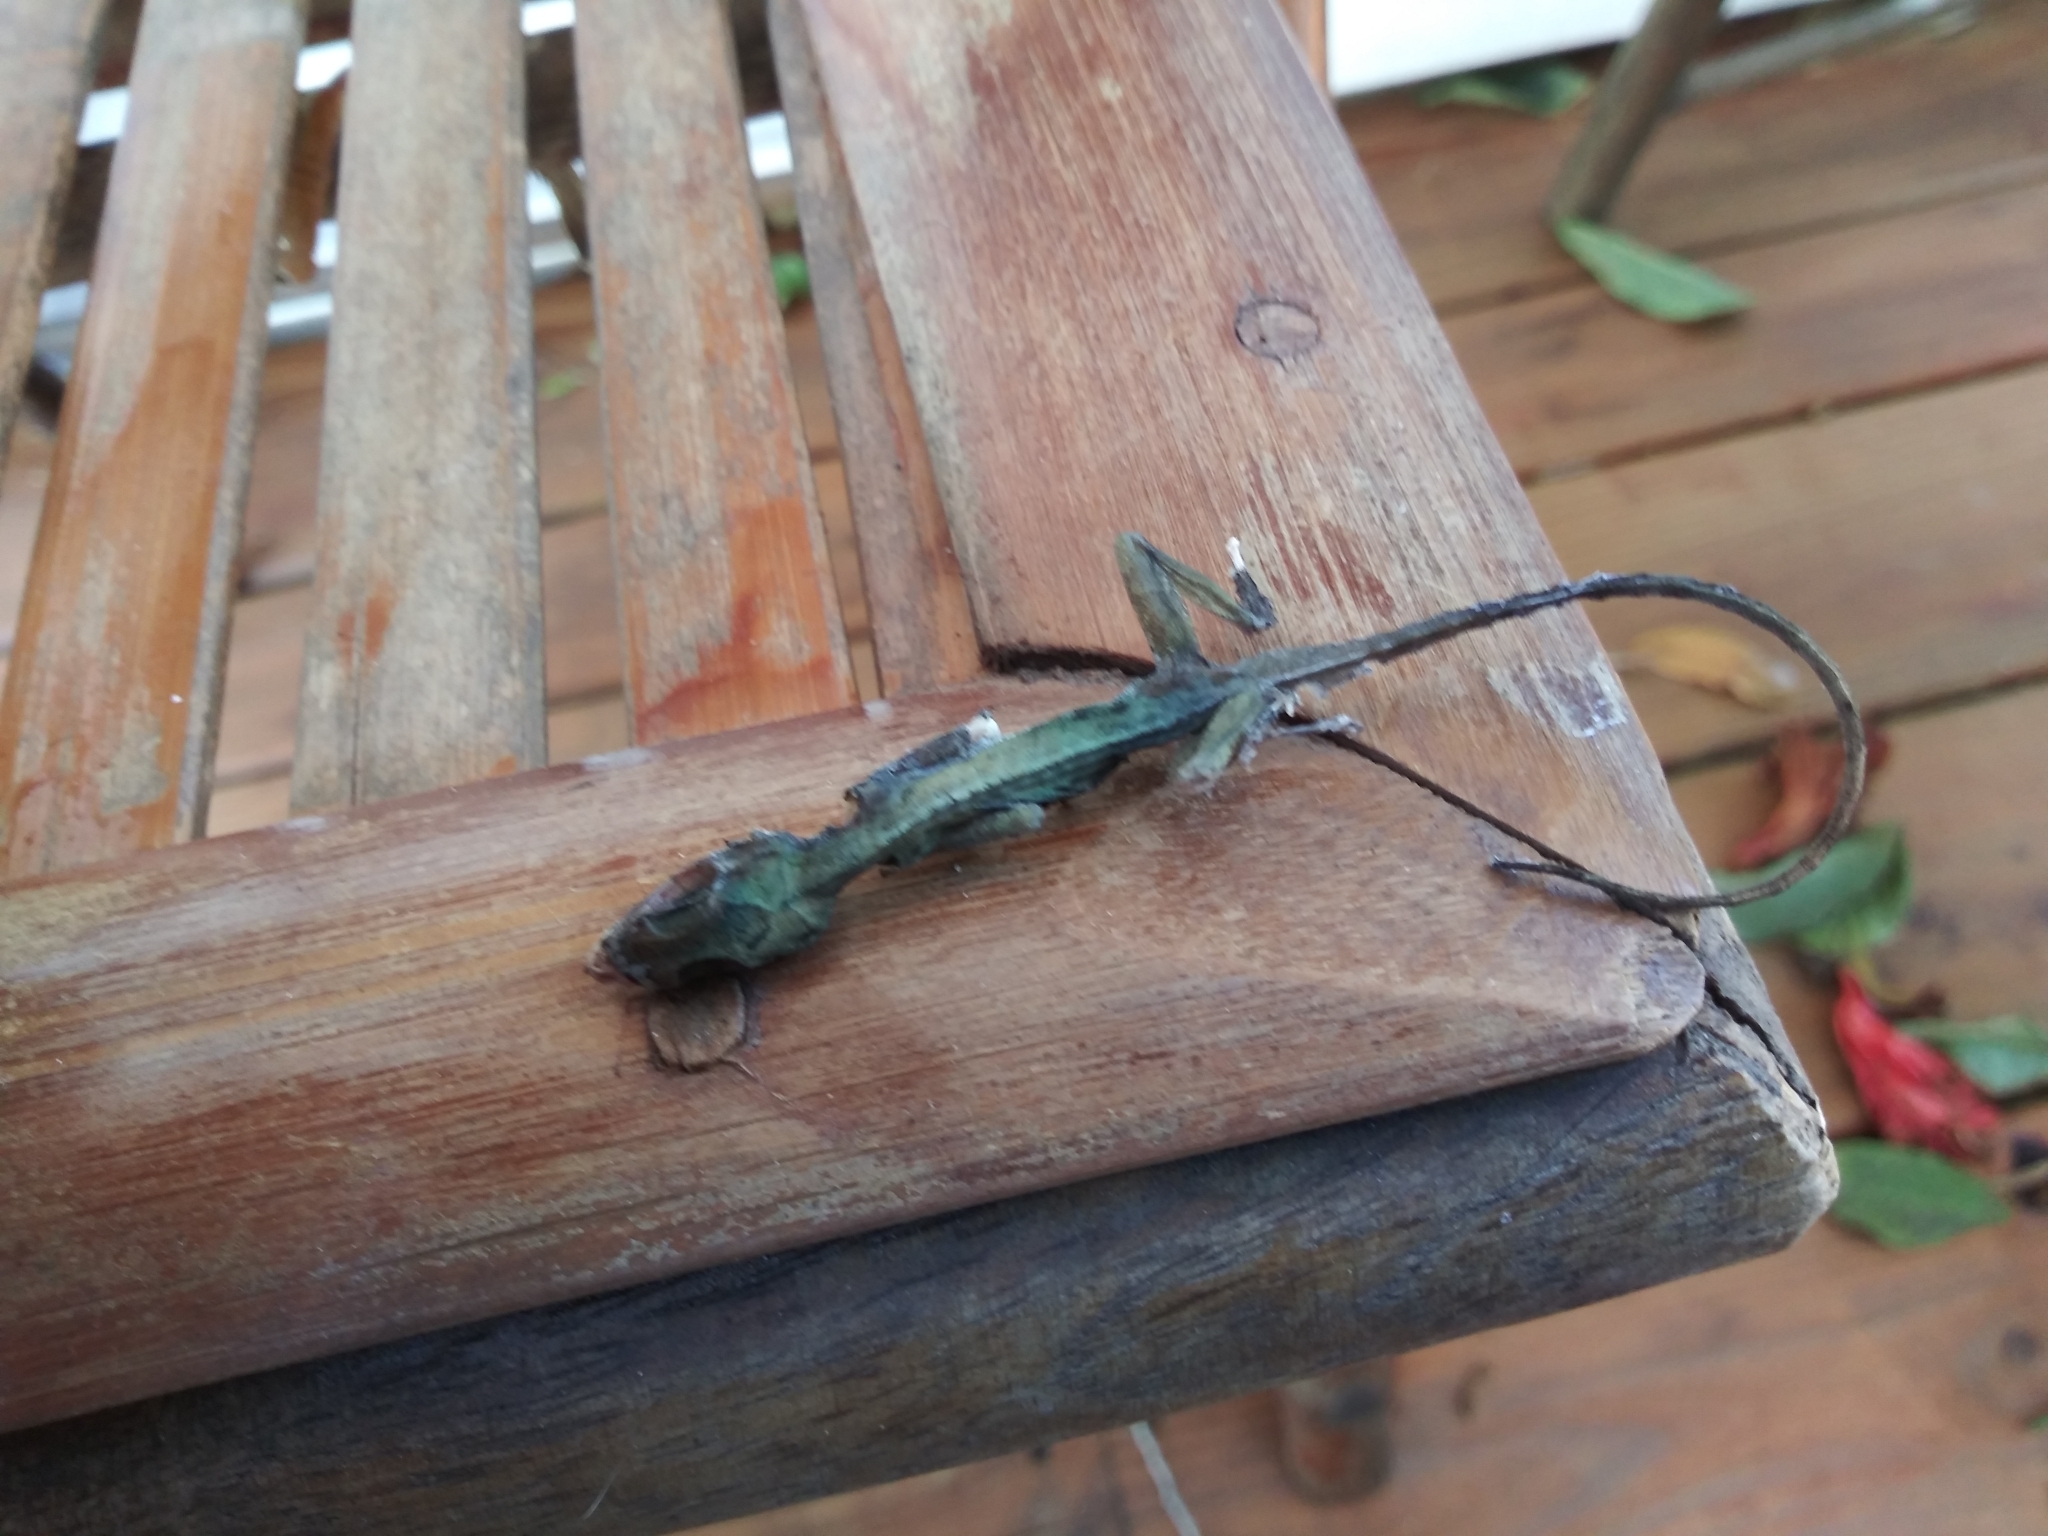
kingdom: Animalia
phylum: Chordata
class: Squamata
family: Dactyloidae
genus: Anolis
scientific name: Anolis carolinensis
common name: Green anole
